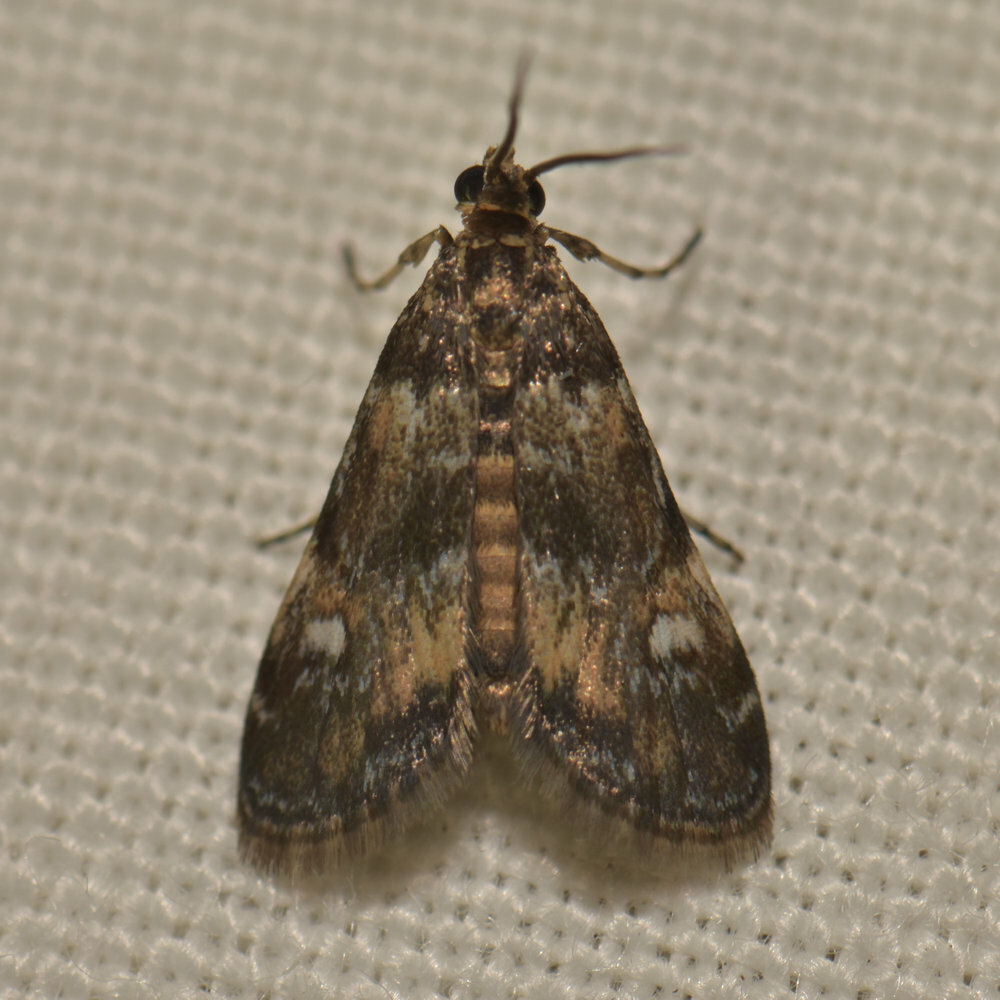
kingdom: Animalia
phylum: Arthropoda
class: Insecta
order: Lepidoptera
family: Crambidae
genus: Elophila
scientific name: Elophila obliteralis
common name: Waterlily leafcutter moth
